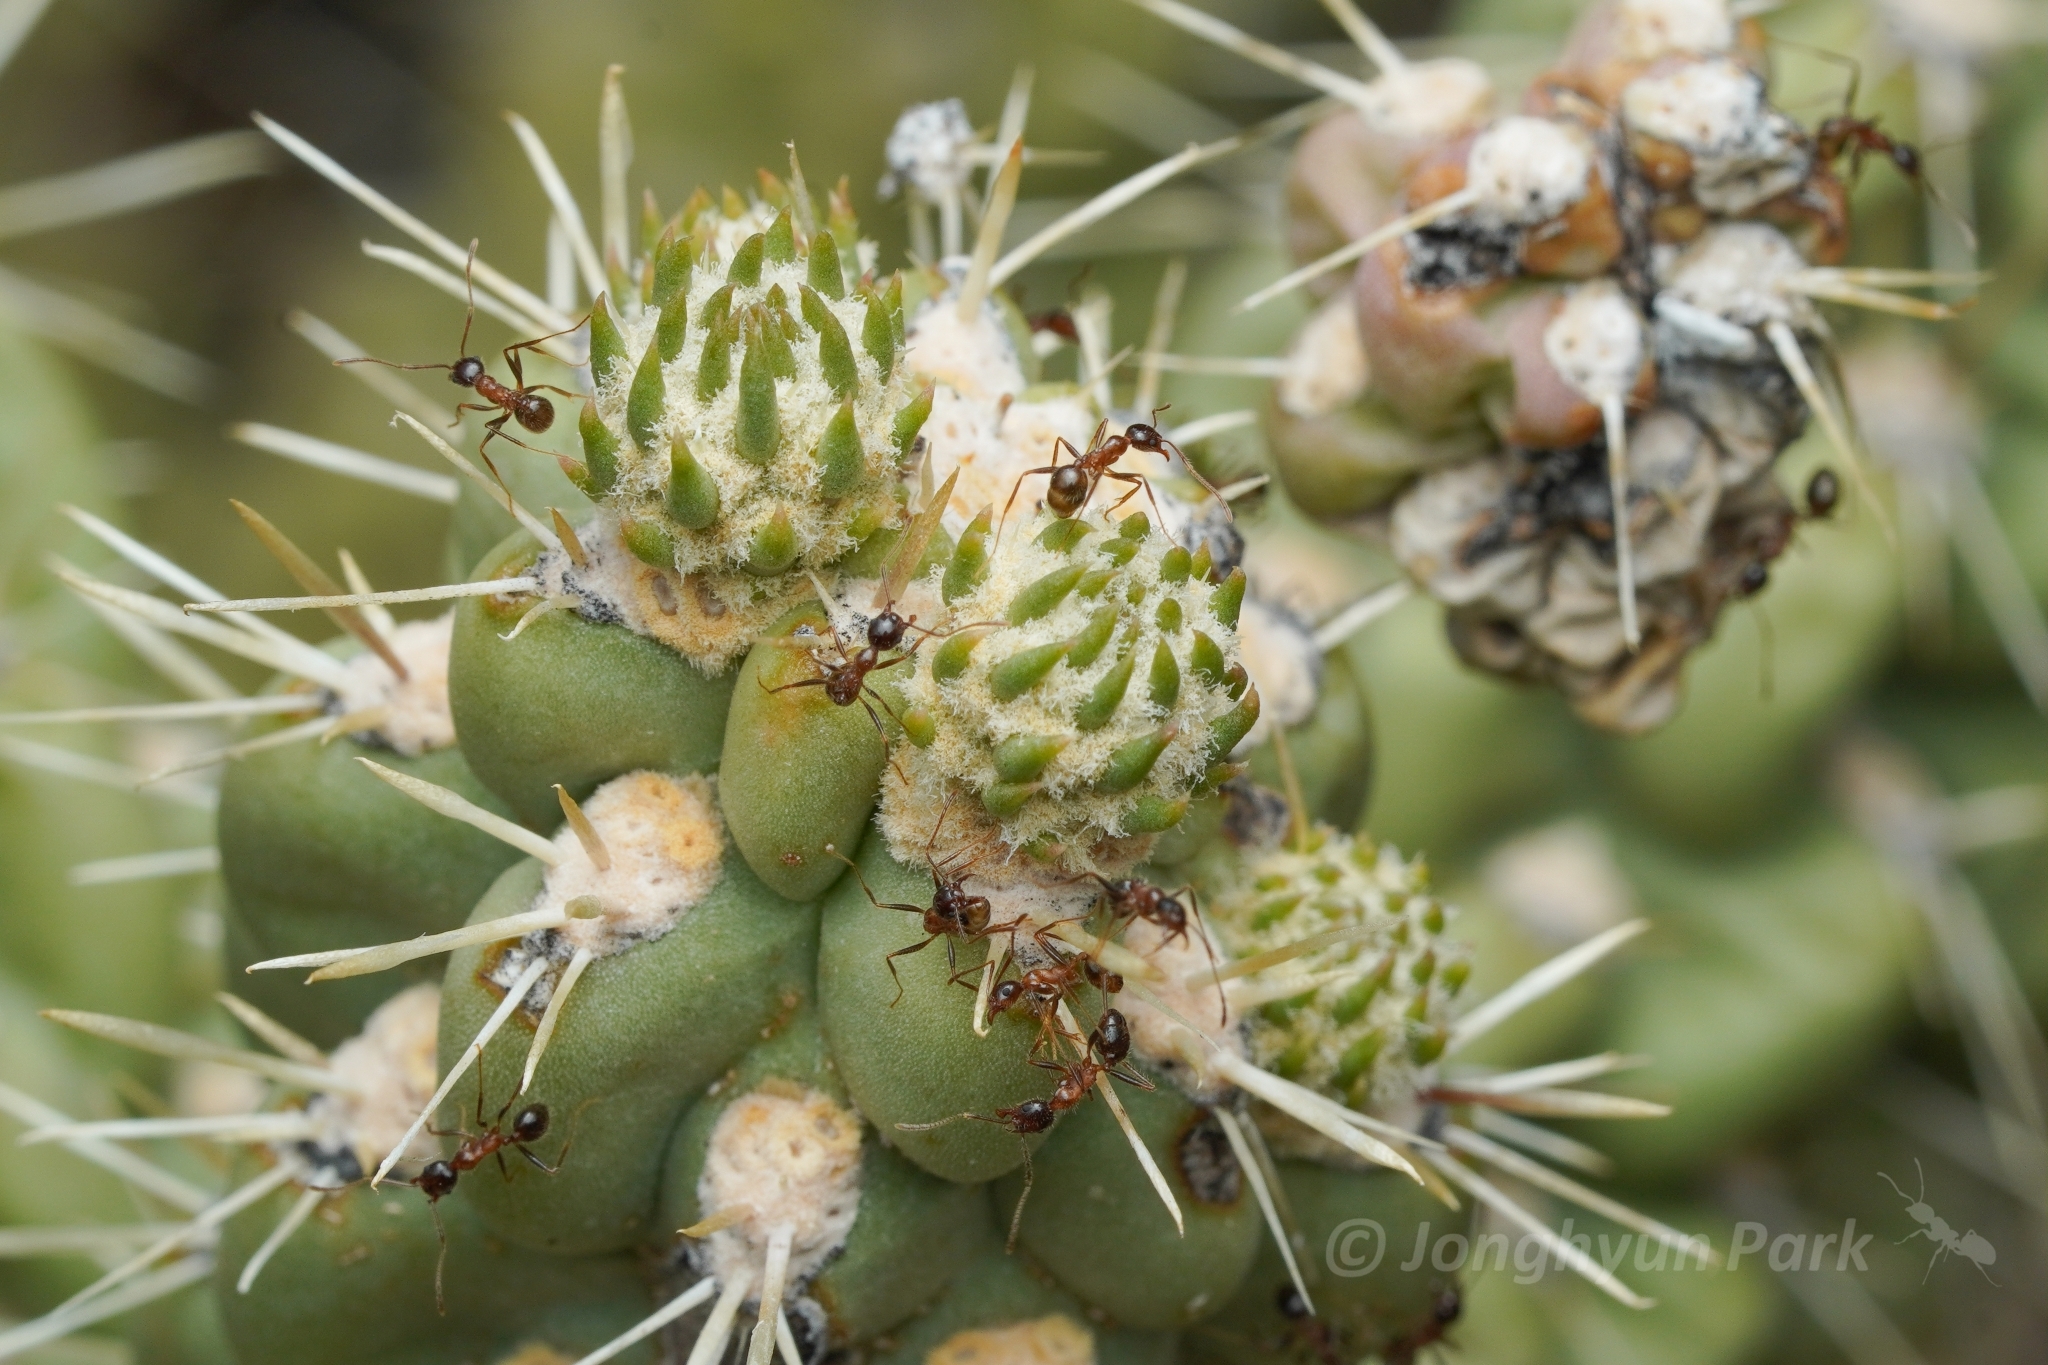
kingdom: Animalia
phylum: Arthropoda
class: Insecta
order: Hymenoptera
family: Formicidae
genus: Pheidole
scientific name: Pheidole obtusospinosa
